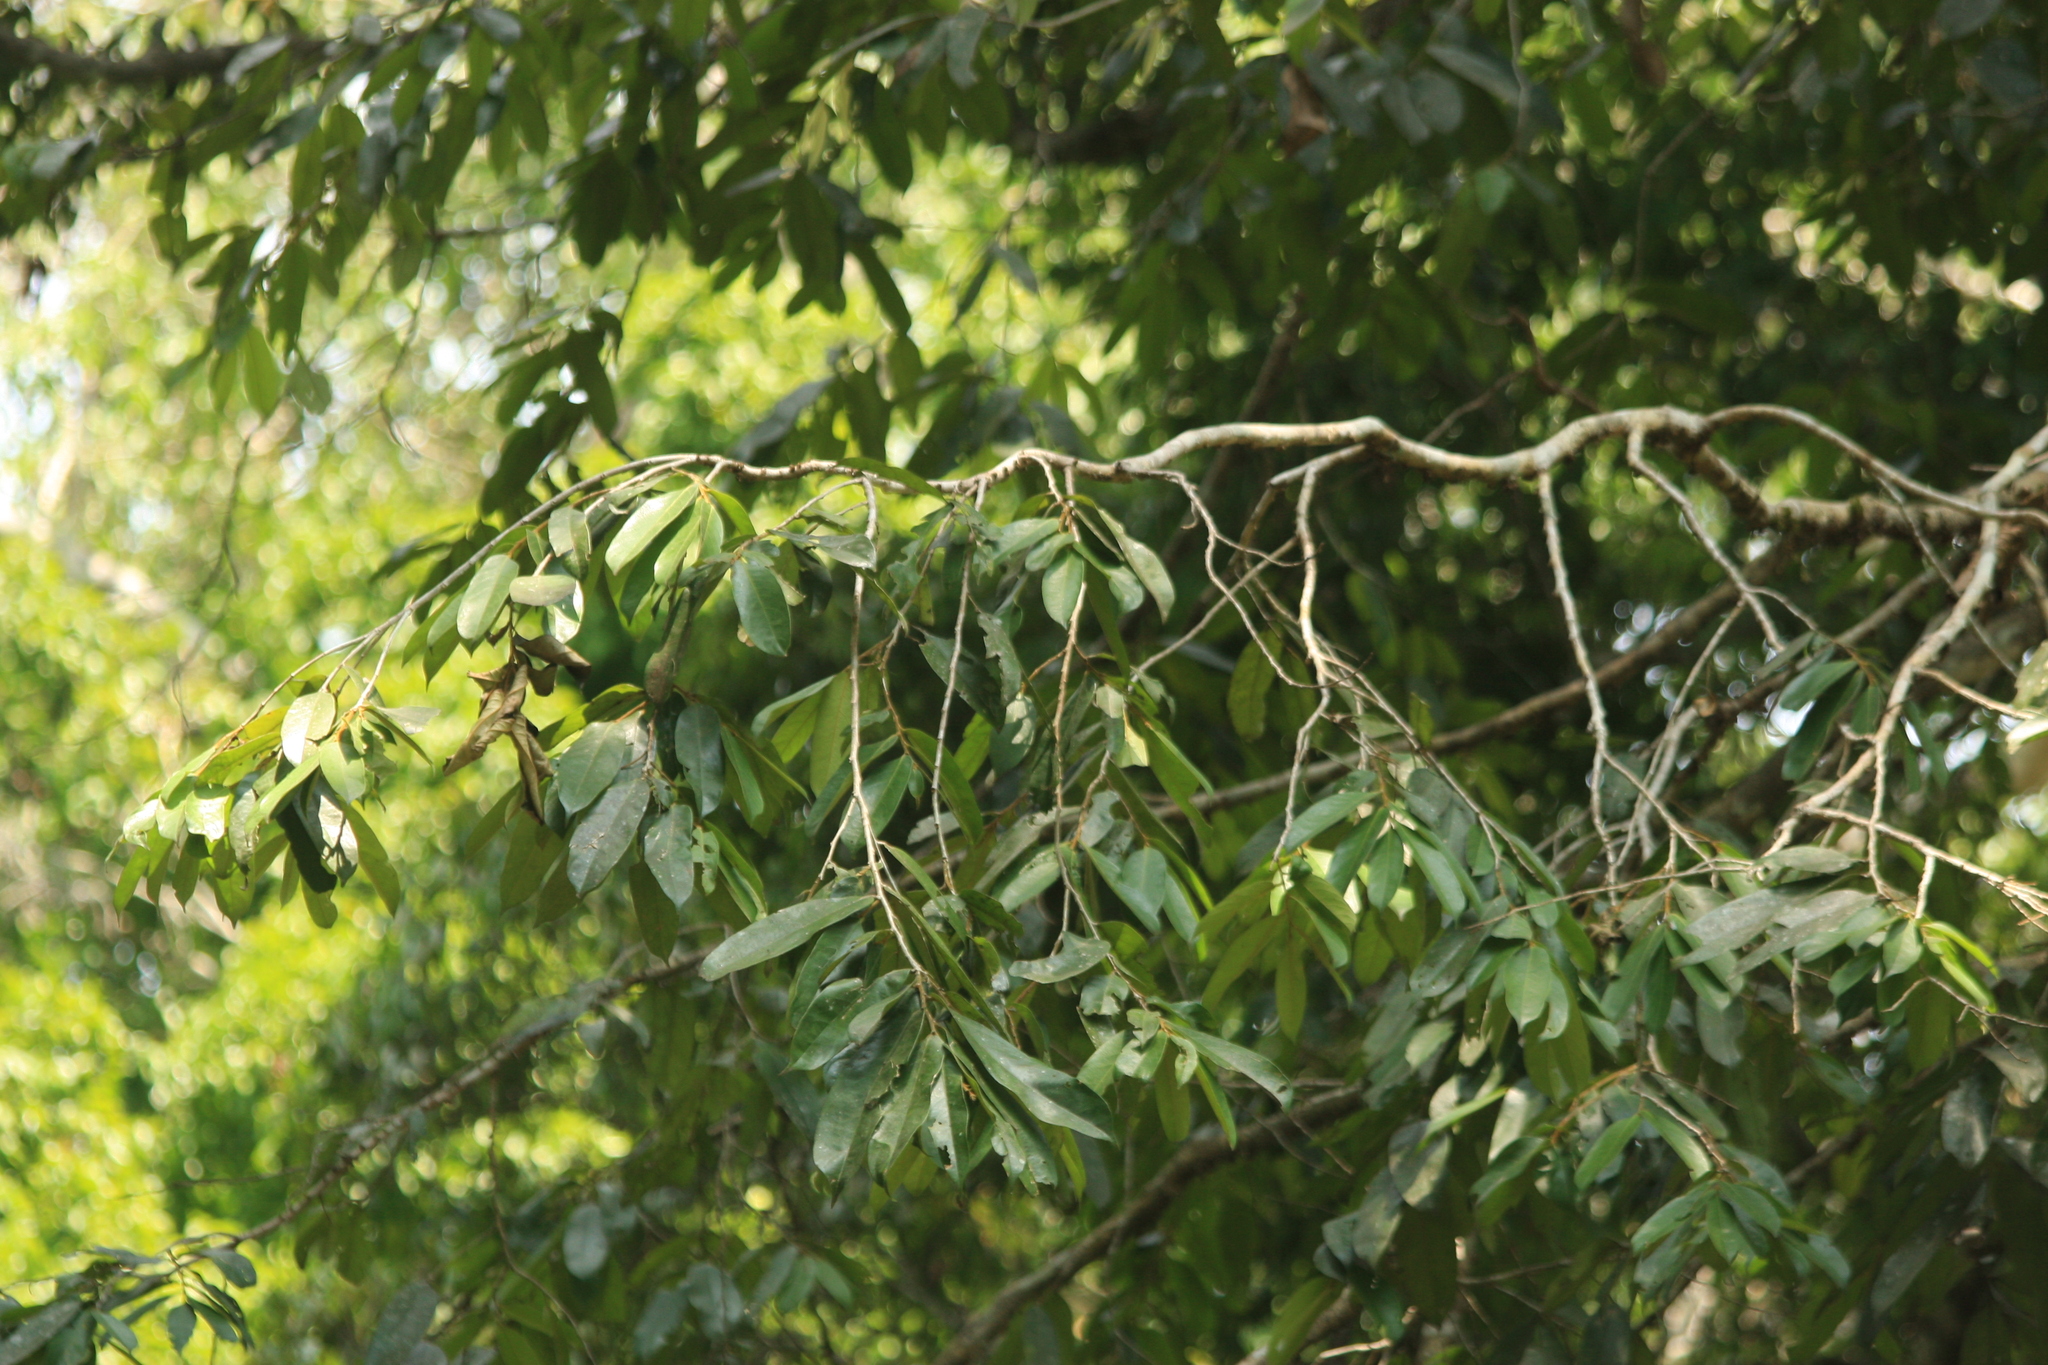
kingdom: Plantae
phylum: Tracheophyta
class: Magnoliopsida
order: Malpighiales
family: Putranjivaceae
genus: Drypetes
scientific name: Drypetes malabarica
